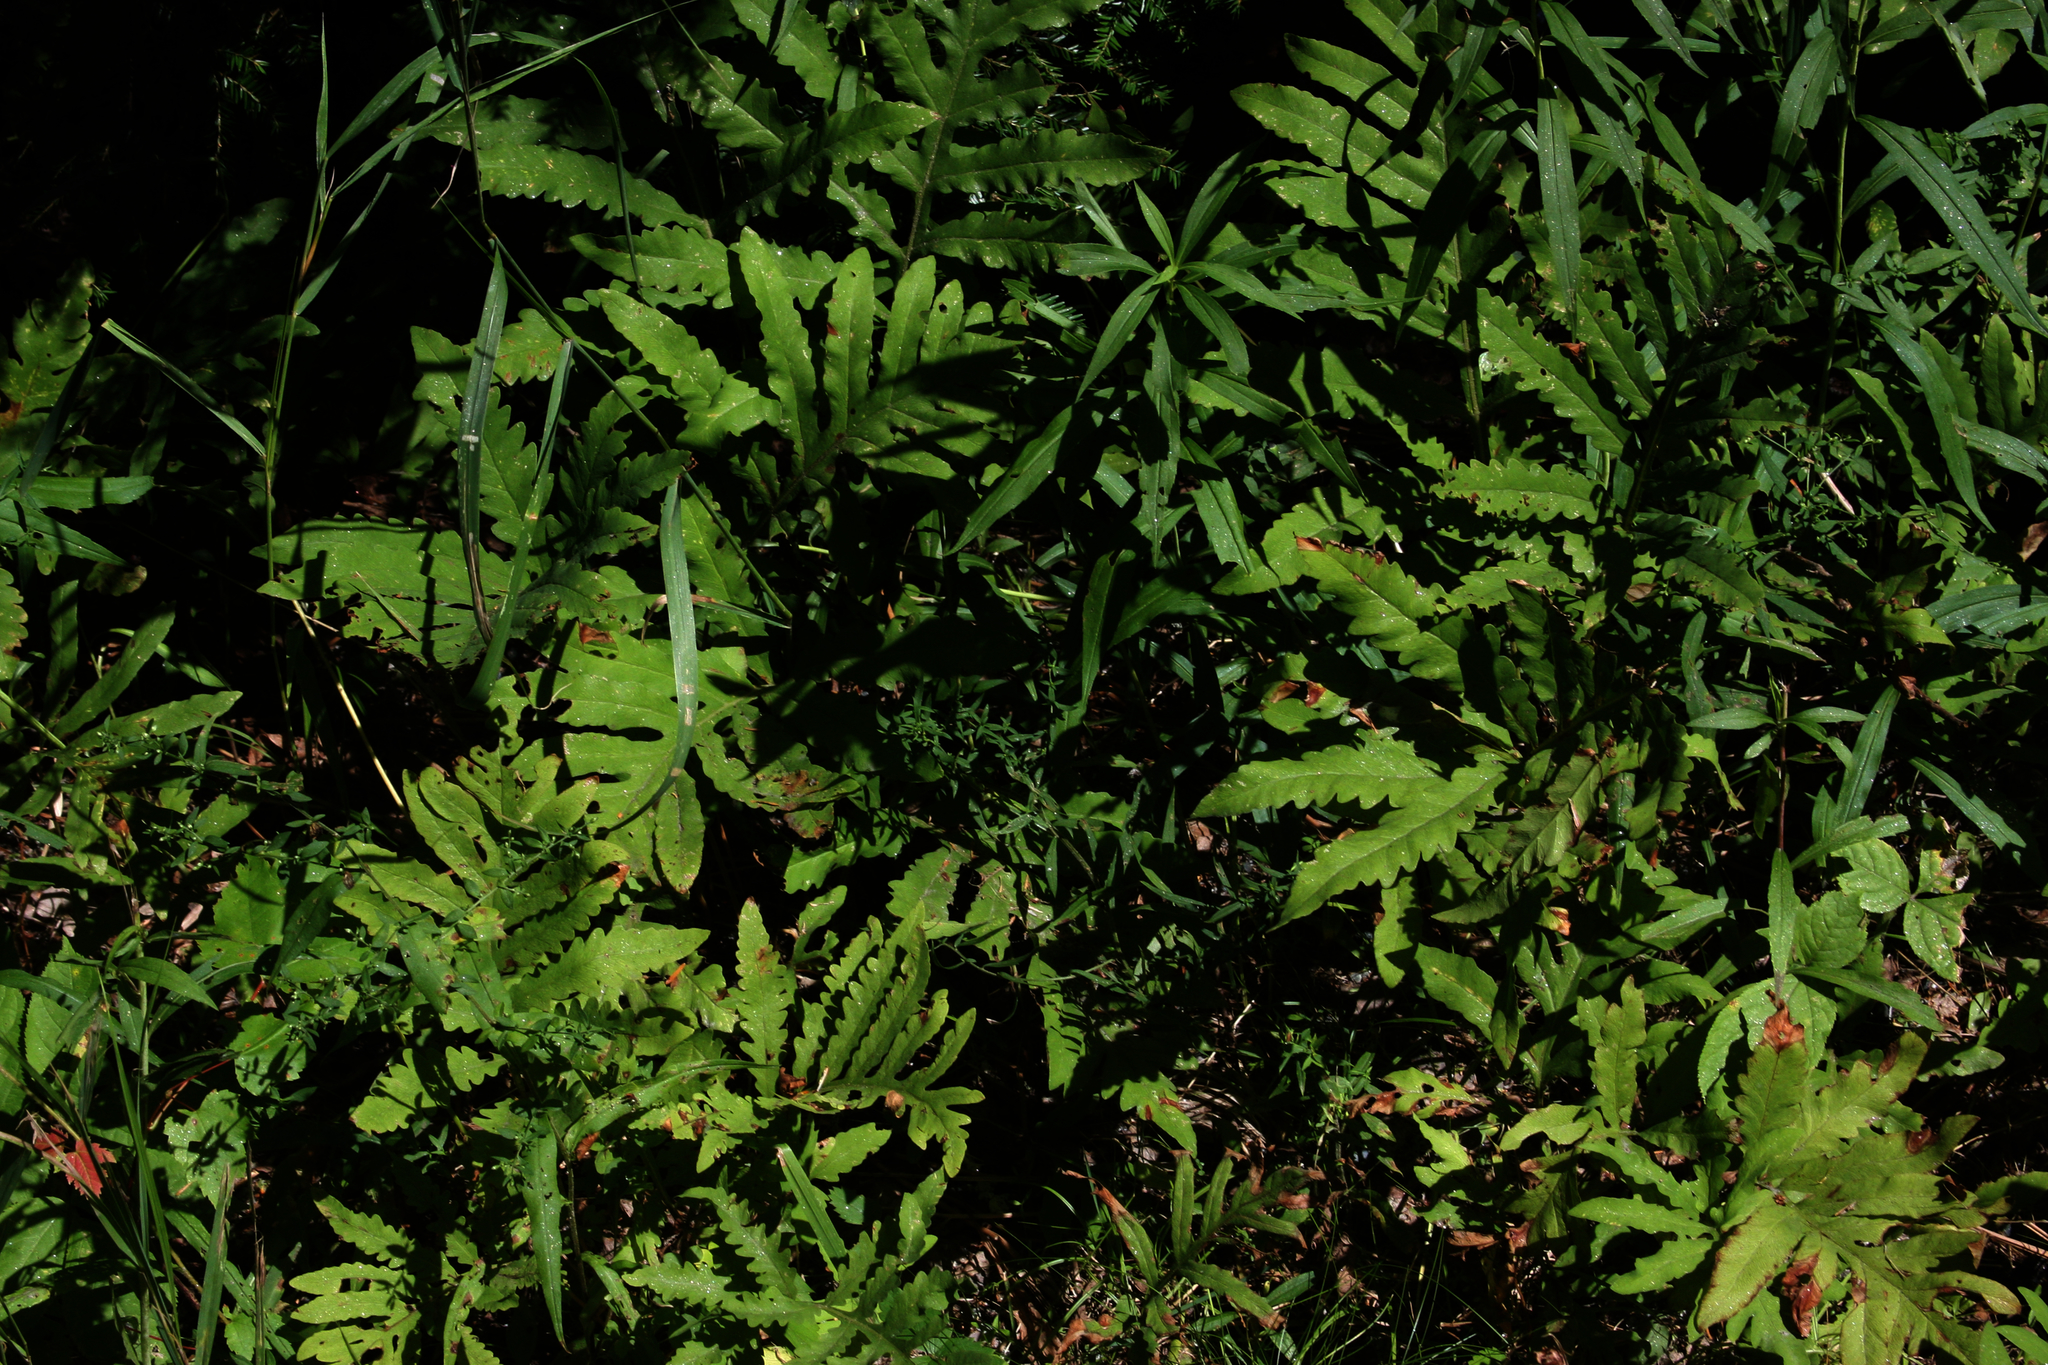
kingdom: Plantae
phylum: Tracheophyta
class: Polypodiopsida
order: Polypodiales
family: Onocleaceae
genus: Onoclea
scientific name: Onoclea sensibilis
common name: Sensitive fern
